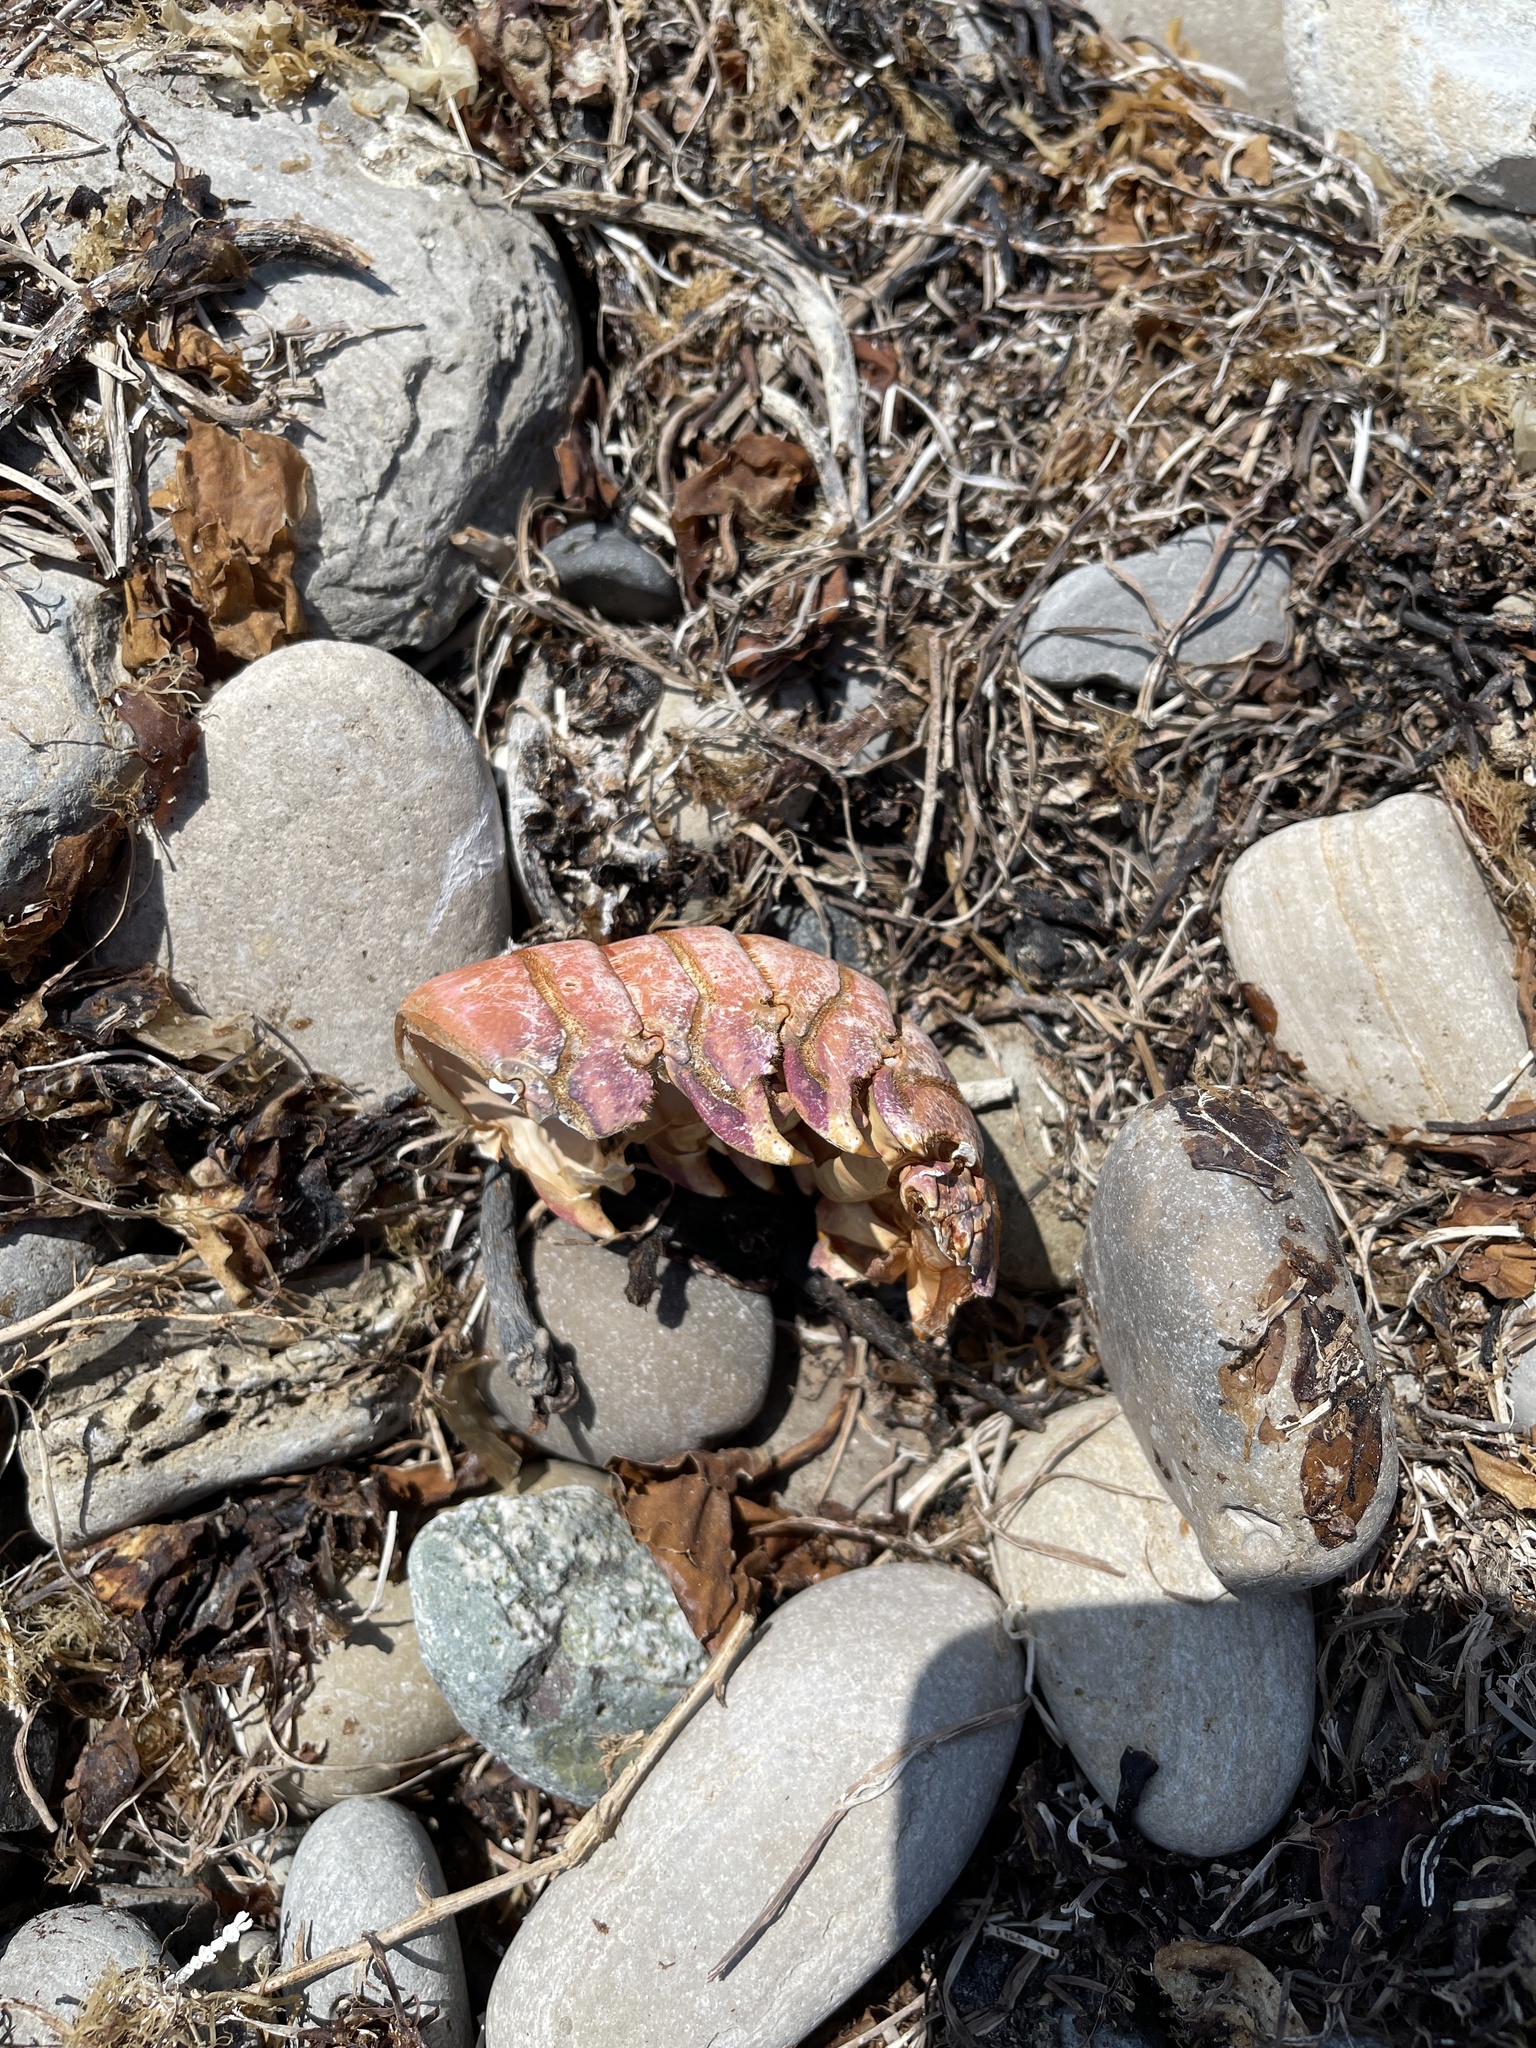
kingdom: Animalia
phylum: Arthropoda
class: Malacostraca
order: Decapoda
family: Palinuridae
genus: Panulirus
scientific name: Panulirus interruptus
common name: California spiny lobster
